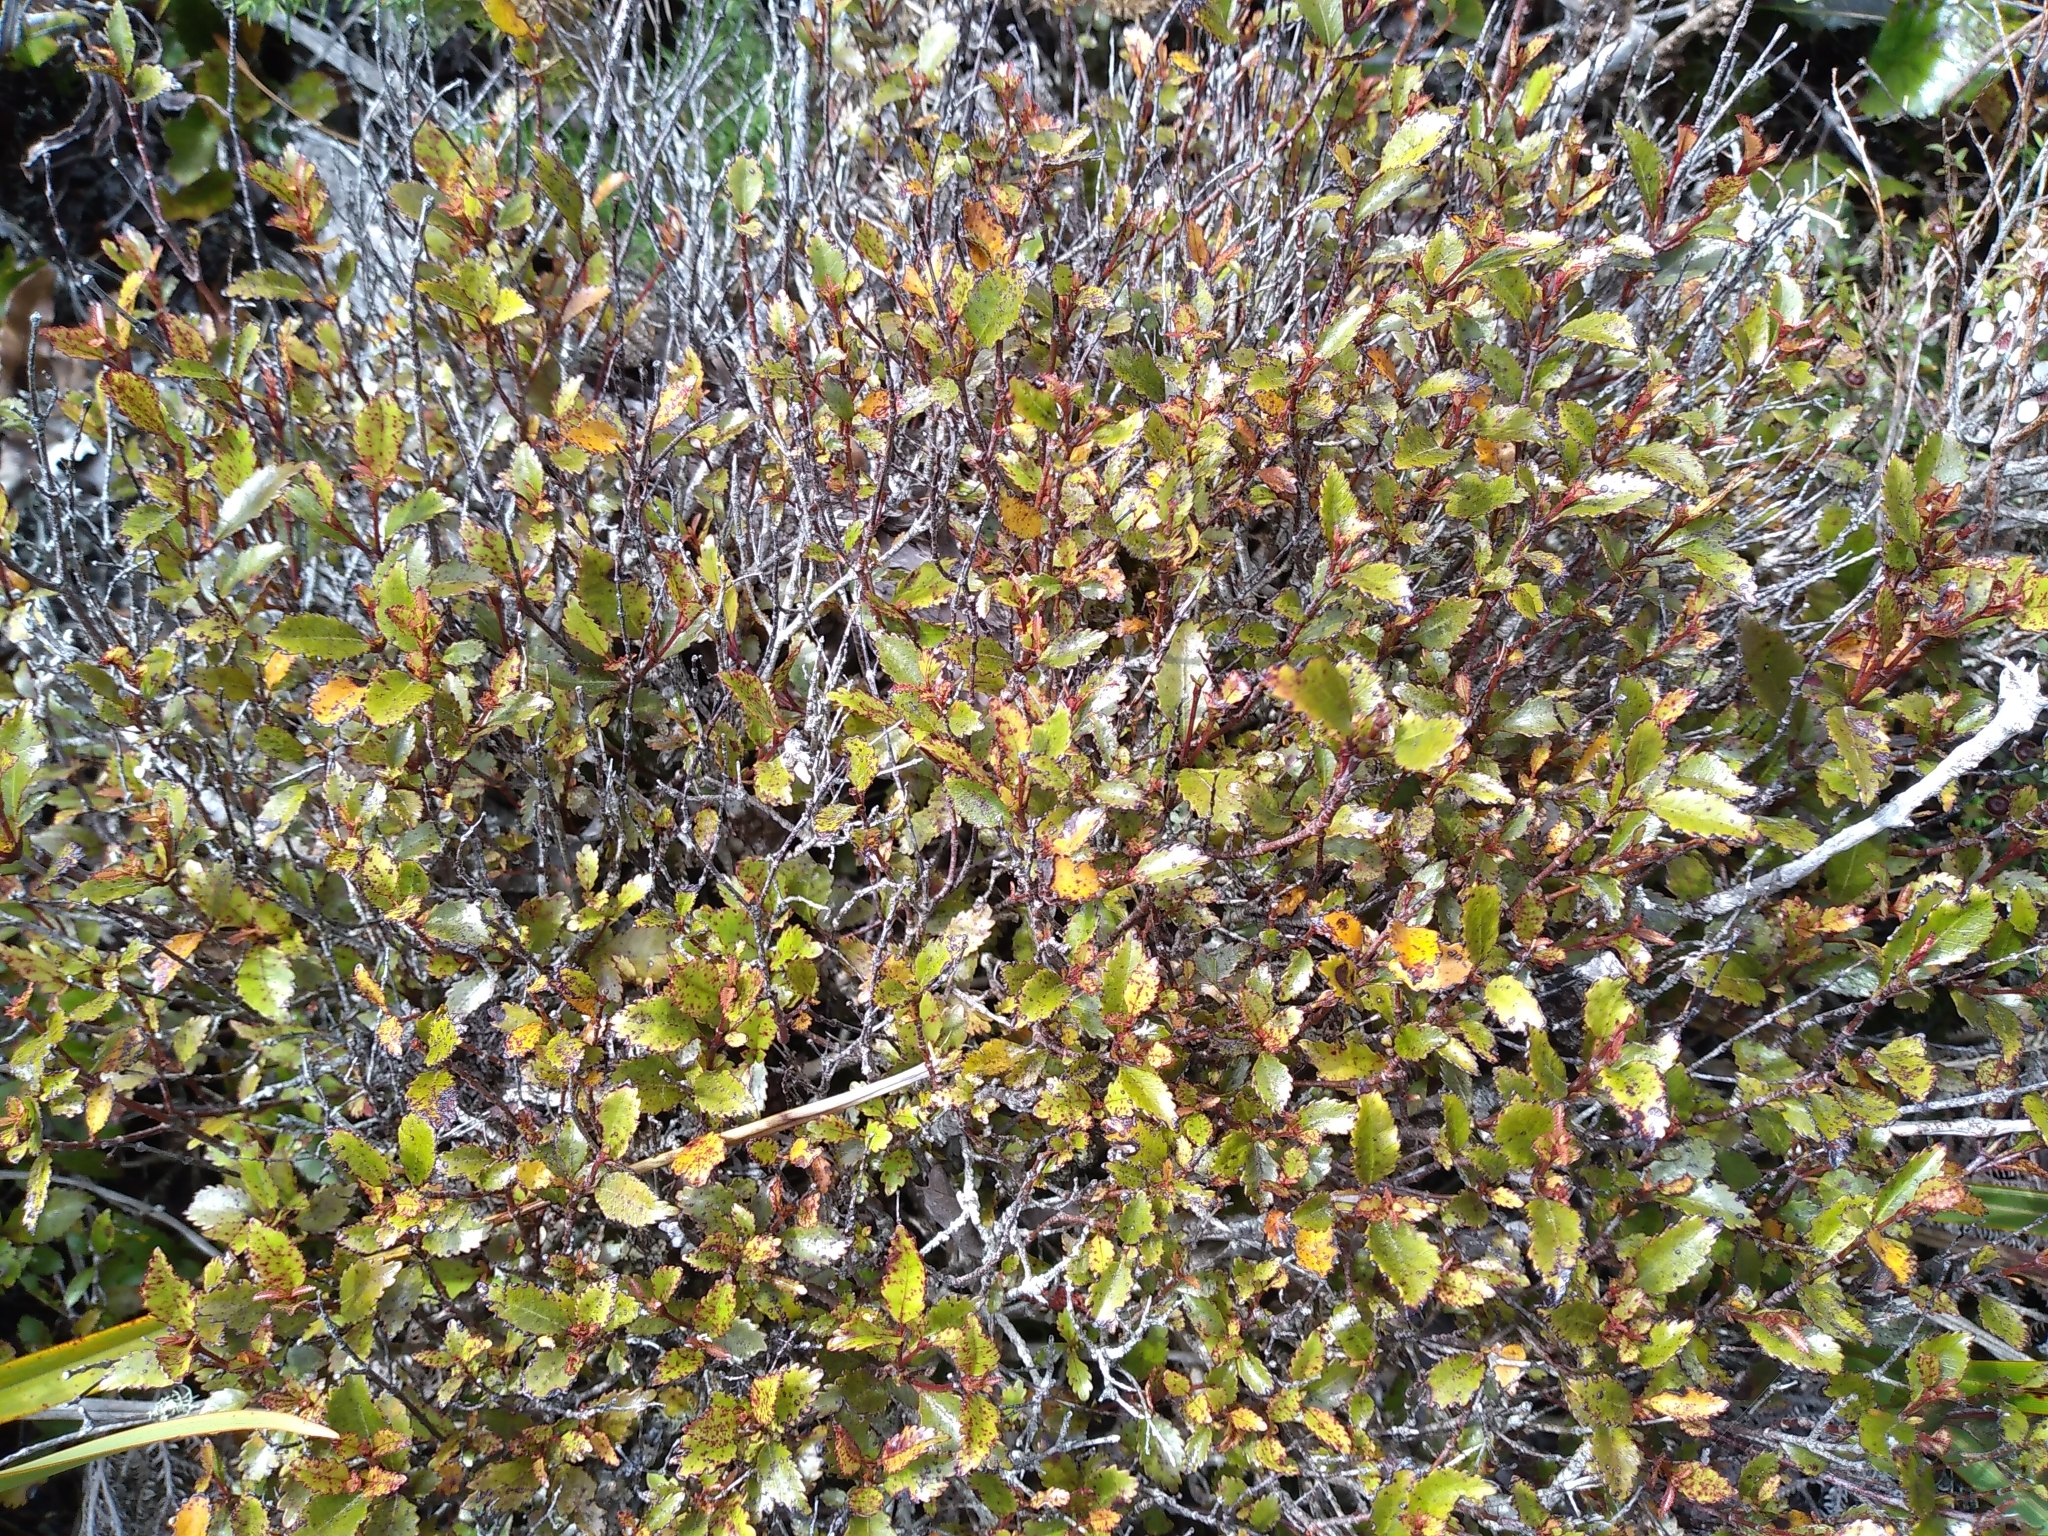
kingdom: Plantae
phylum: Tracheophyta
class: Magnoliopsida
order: Oxalidales
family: Cunoniaceae
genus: Pterophylla
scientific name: Pterophylla racemosa
